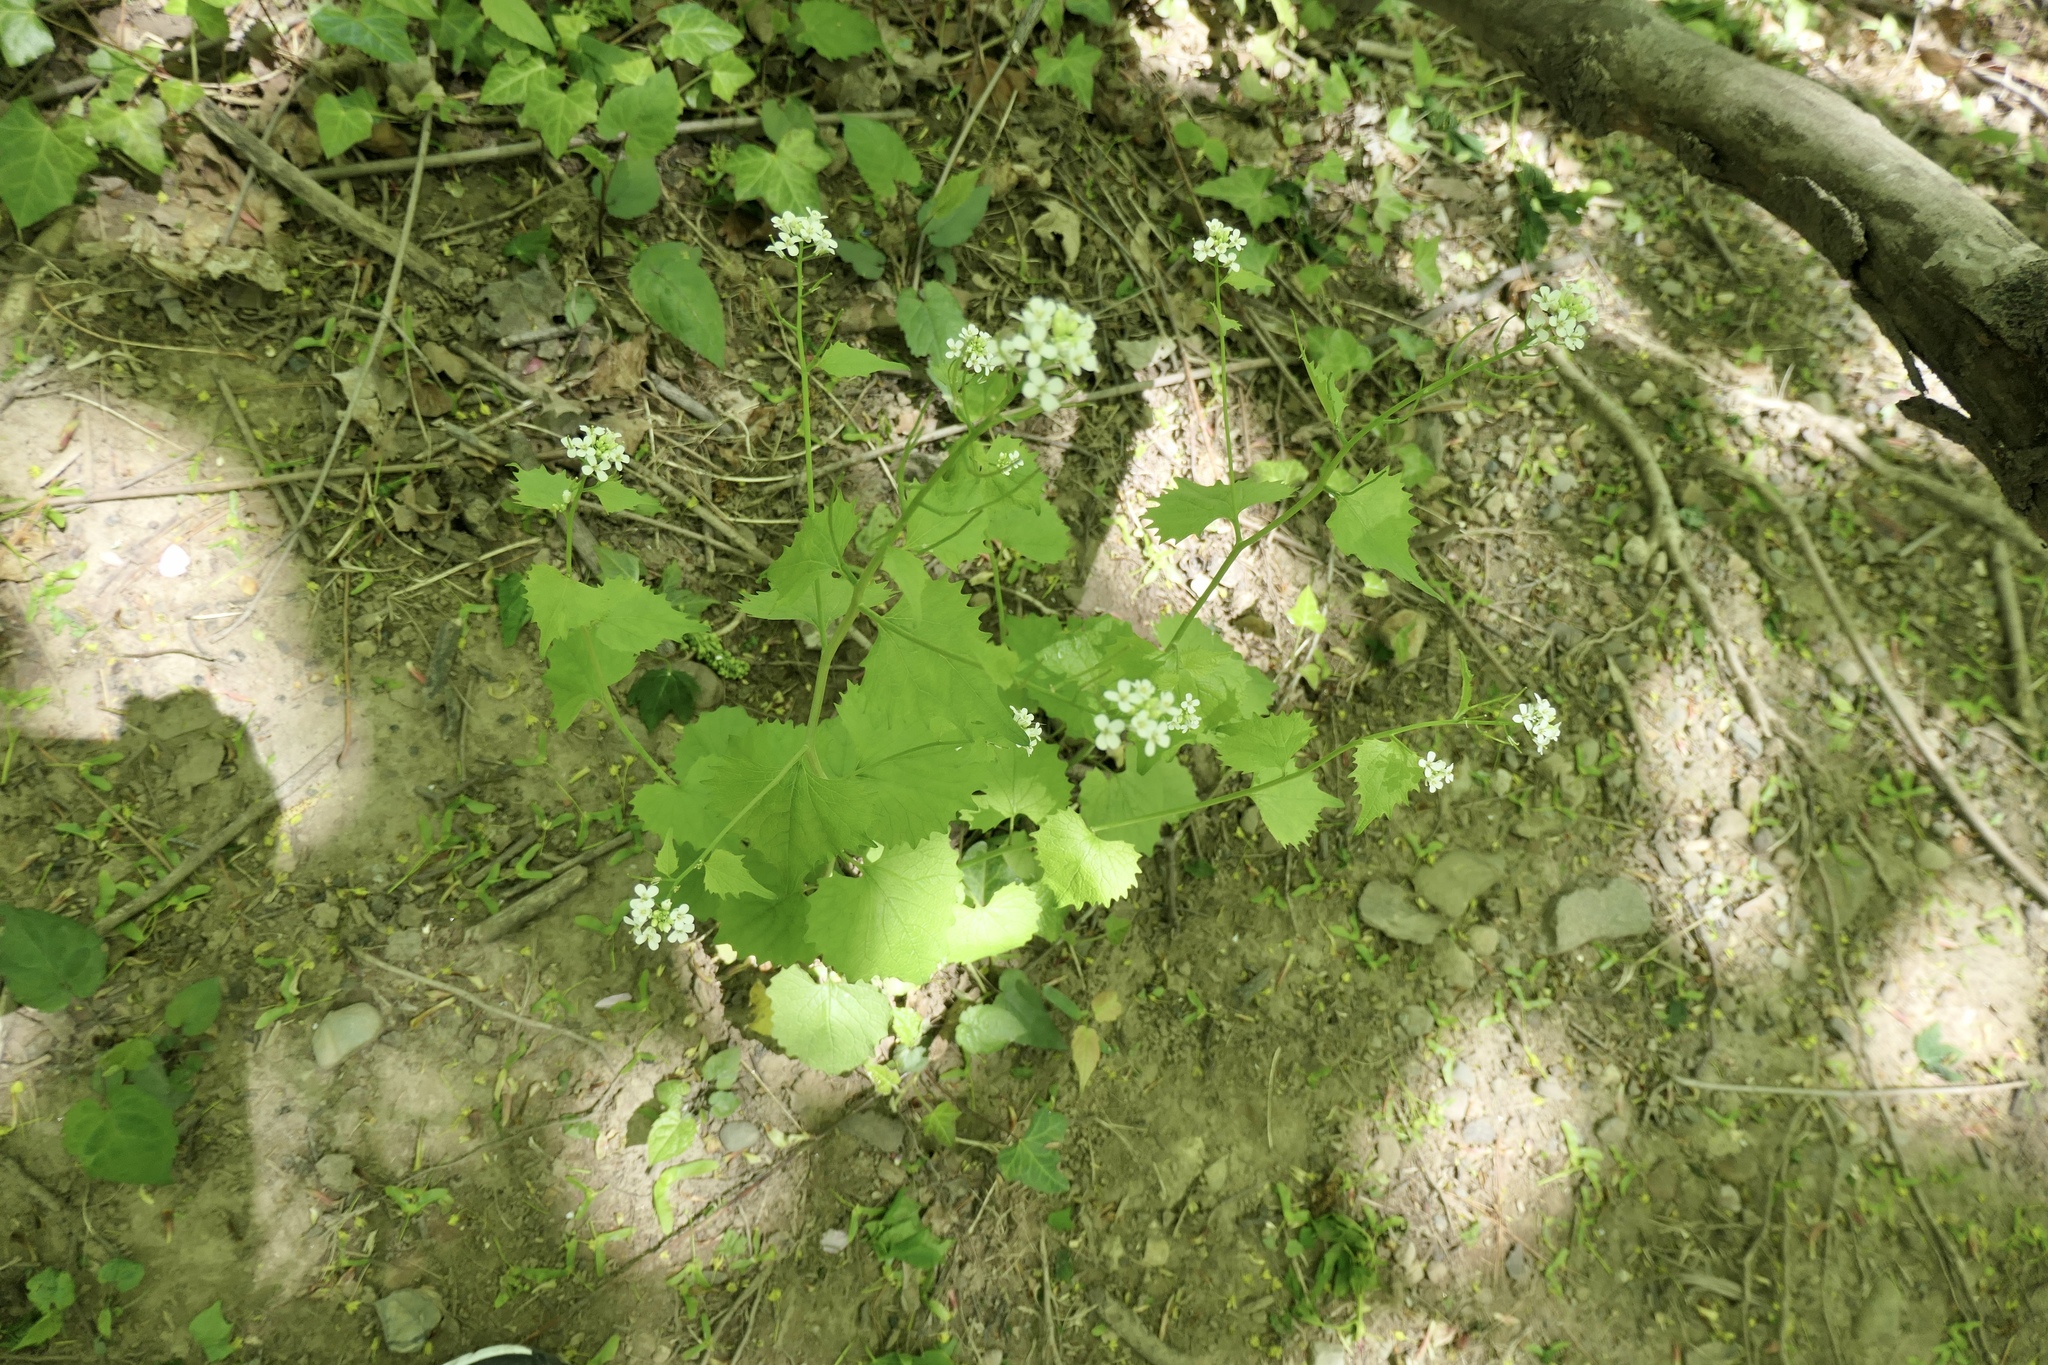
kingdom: Plantae
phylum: Tracheophyta
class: Magnoliopsida
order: Brassicales
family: Brassicaceae
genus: Alliaria
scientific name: Alliaria petiolata
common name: Garlic mustard
